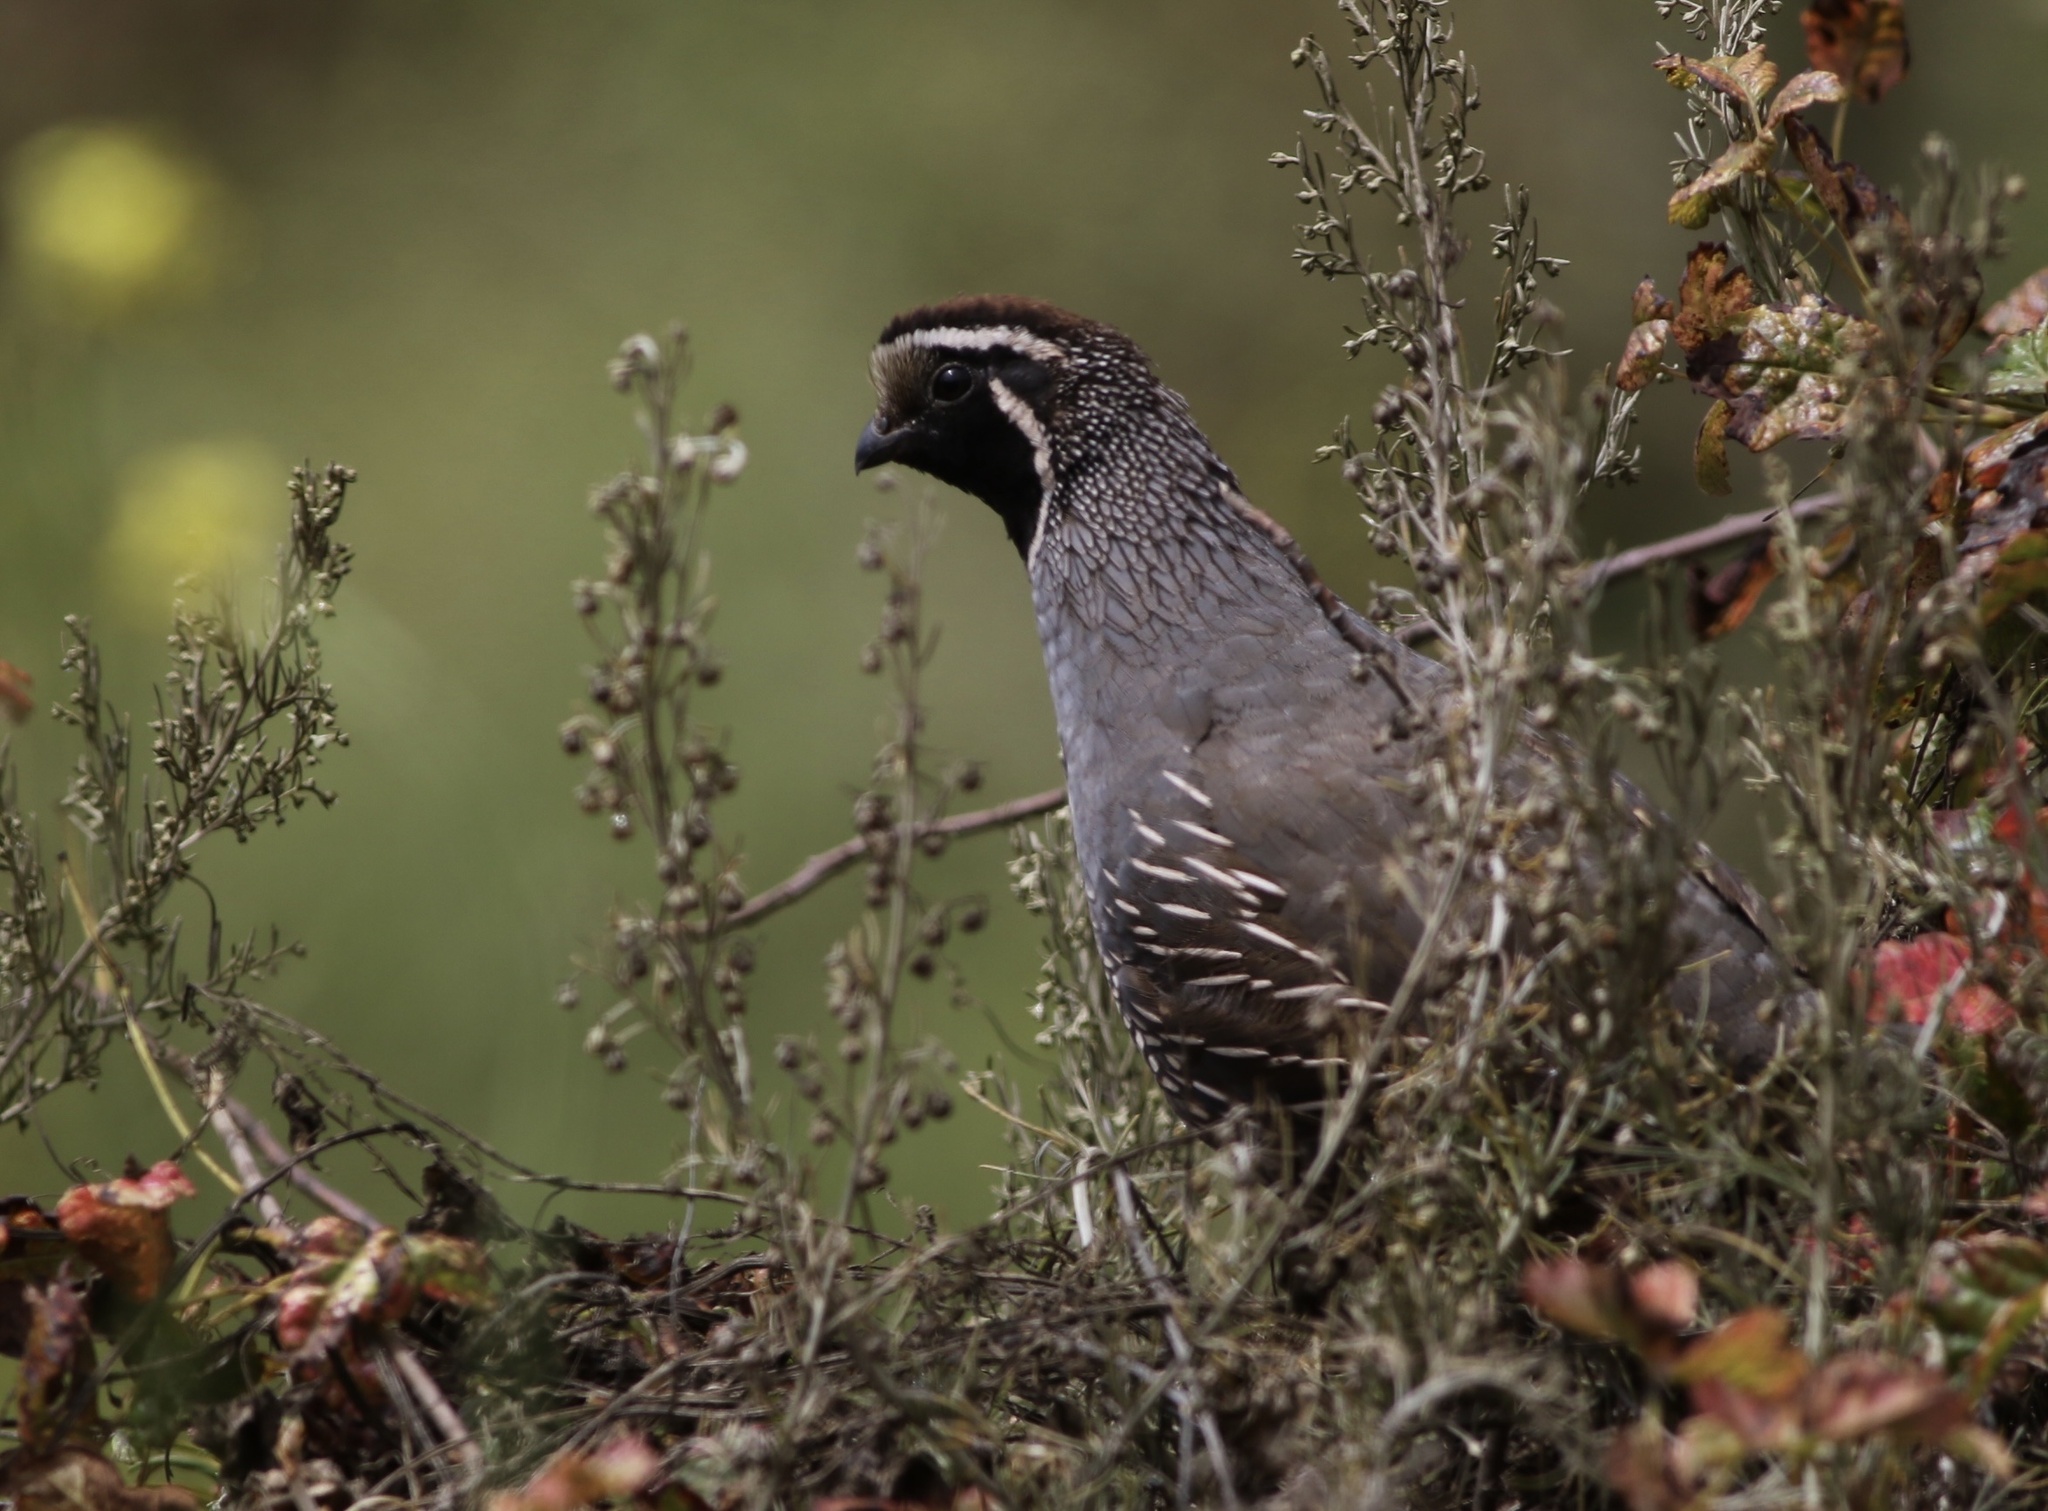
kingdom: Animalia
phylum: Chordata
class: Aves
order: Galliformes
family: Odontophoridae
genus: Callipepla
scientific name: Callipepla californica
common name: California quail
